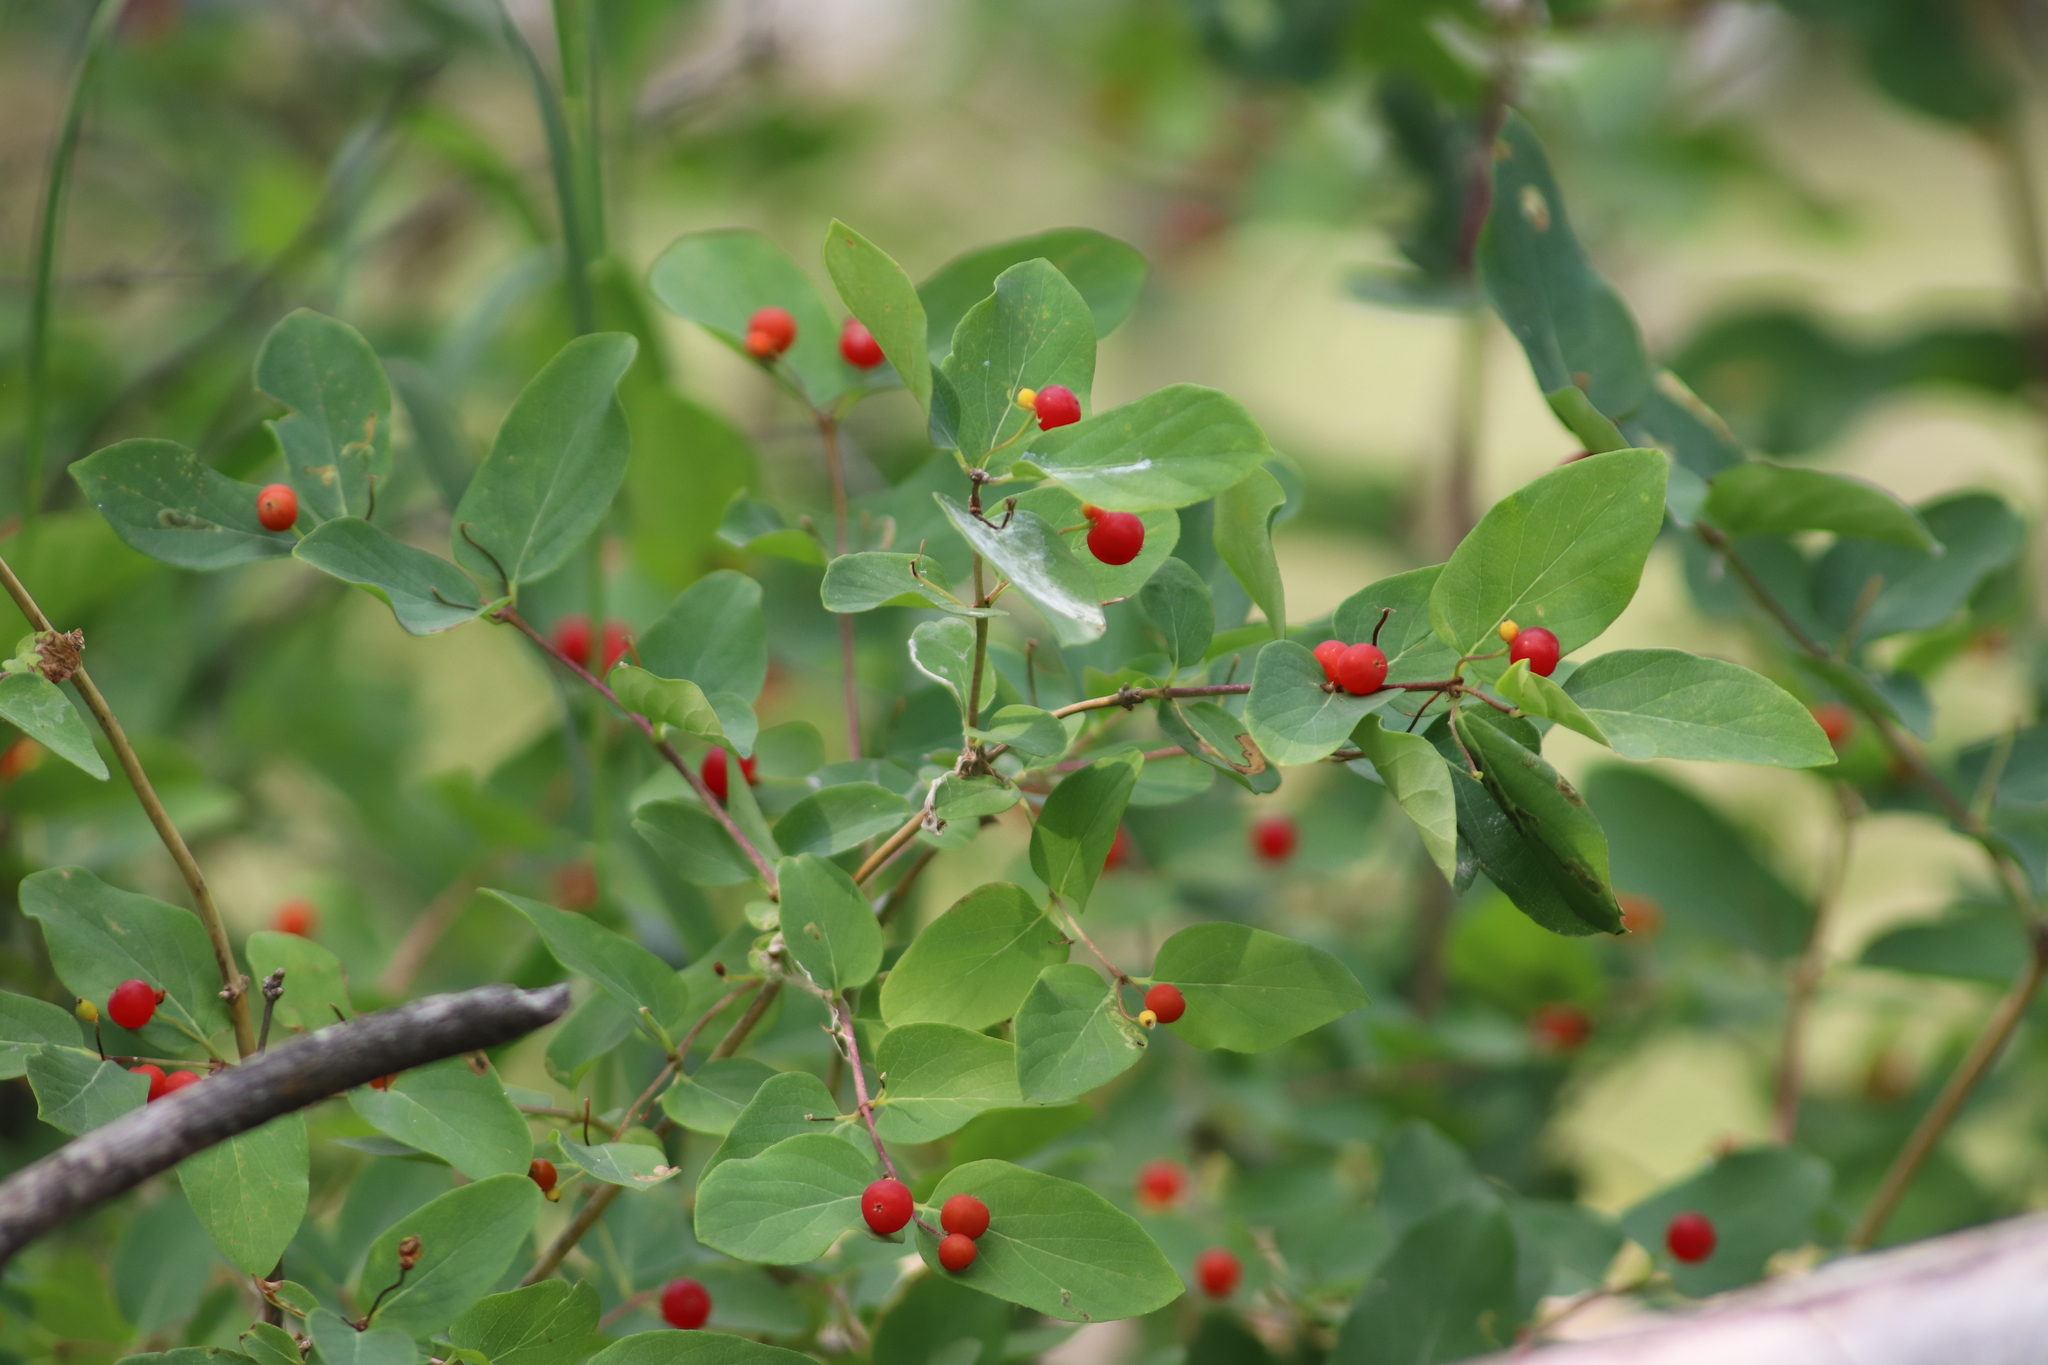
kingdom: Plantae
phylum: Tracheophyta
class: Magnoliopsida
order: Dipsacales
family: Caprifoliaceae
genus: Lonicera
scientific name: Lonicera tatarica
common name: Tatarian honeysuckle
